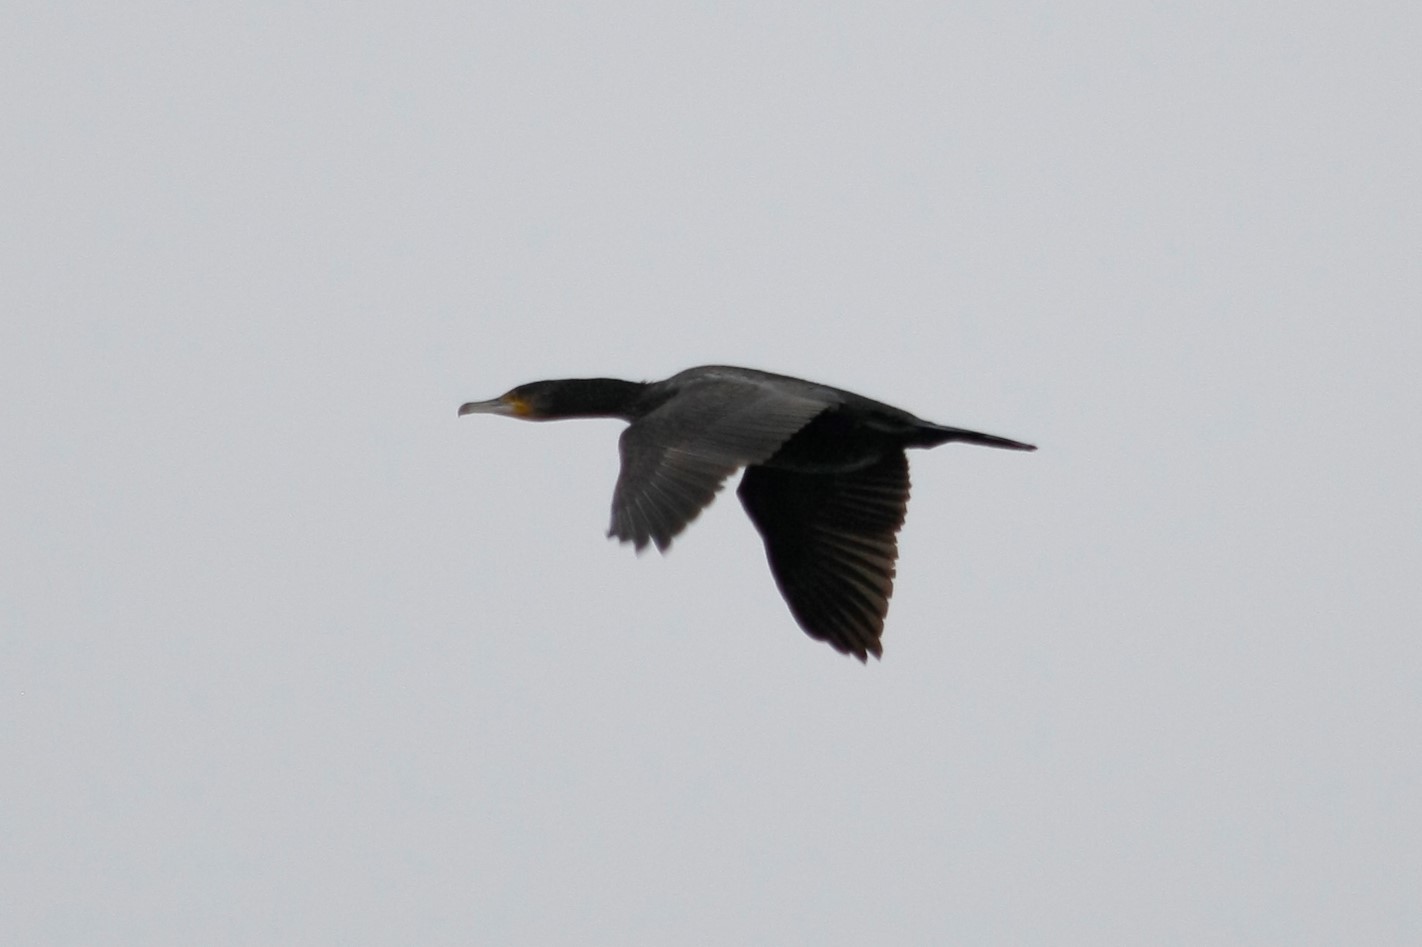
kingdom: Animalia
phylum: Chordata
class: Aves
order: Suliformes
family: Phalacrocoracidae
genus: Phalacrocorax
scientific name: Phalacrocorax carbo
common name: Great cormorant
